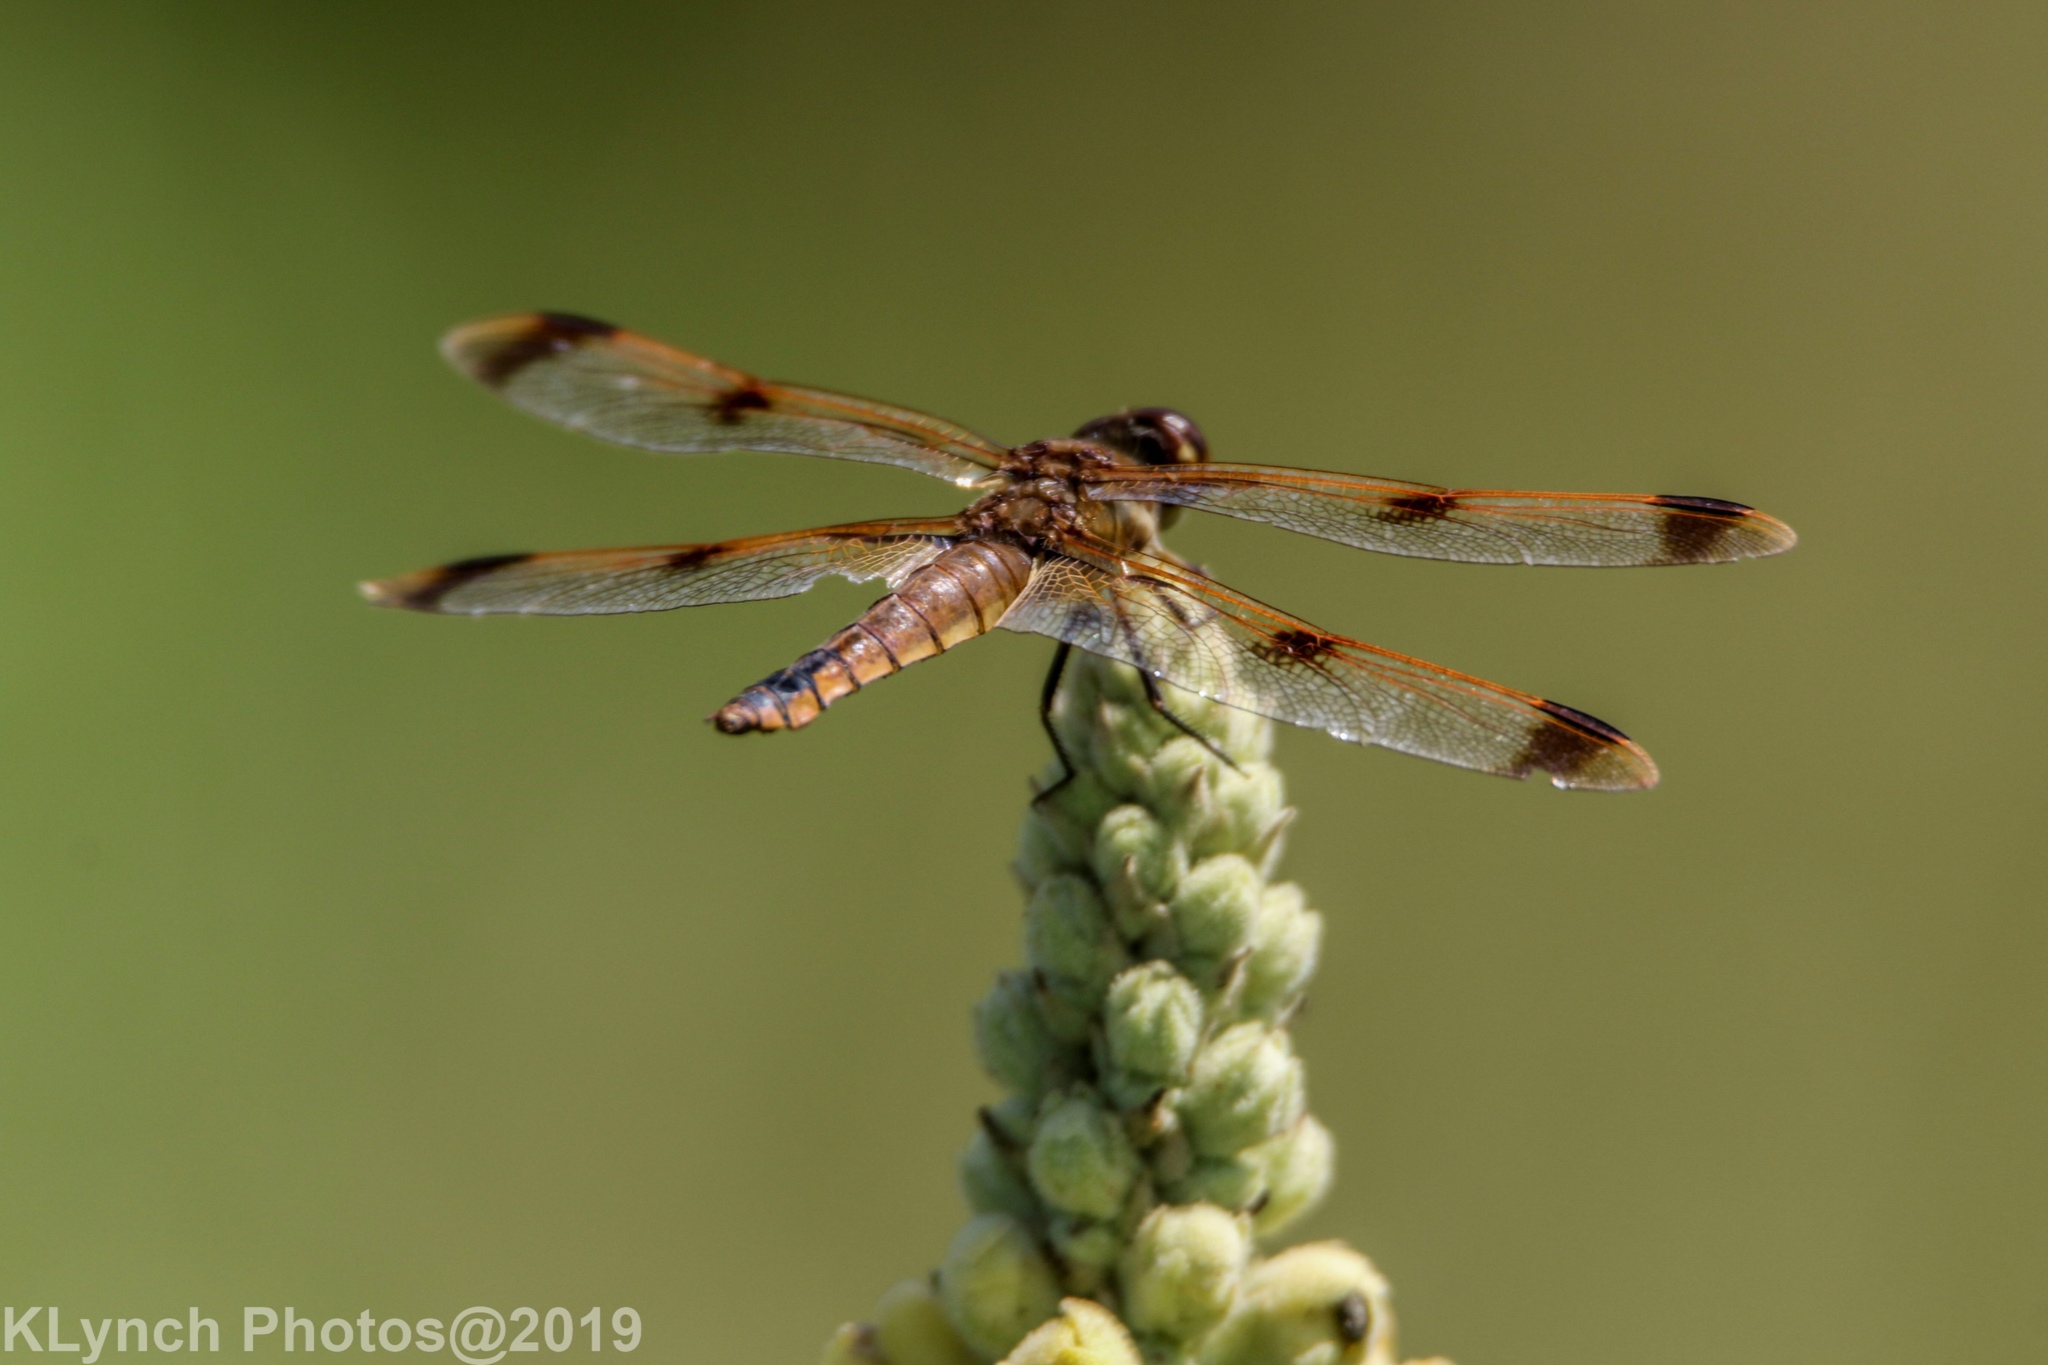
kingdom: Animalia
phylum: Arthropoda
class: Insecta
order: Odonata
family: Libellulidae
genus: Libellula
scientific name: Libellula semifasciata
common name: Painted skimmer
